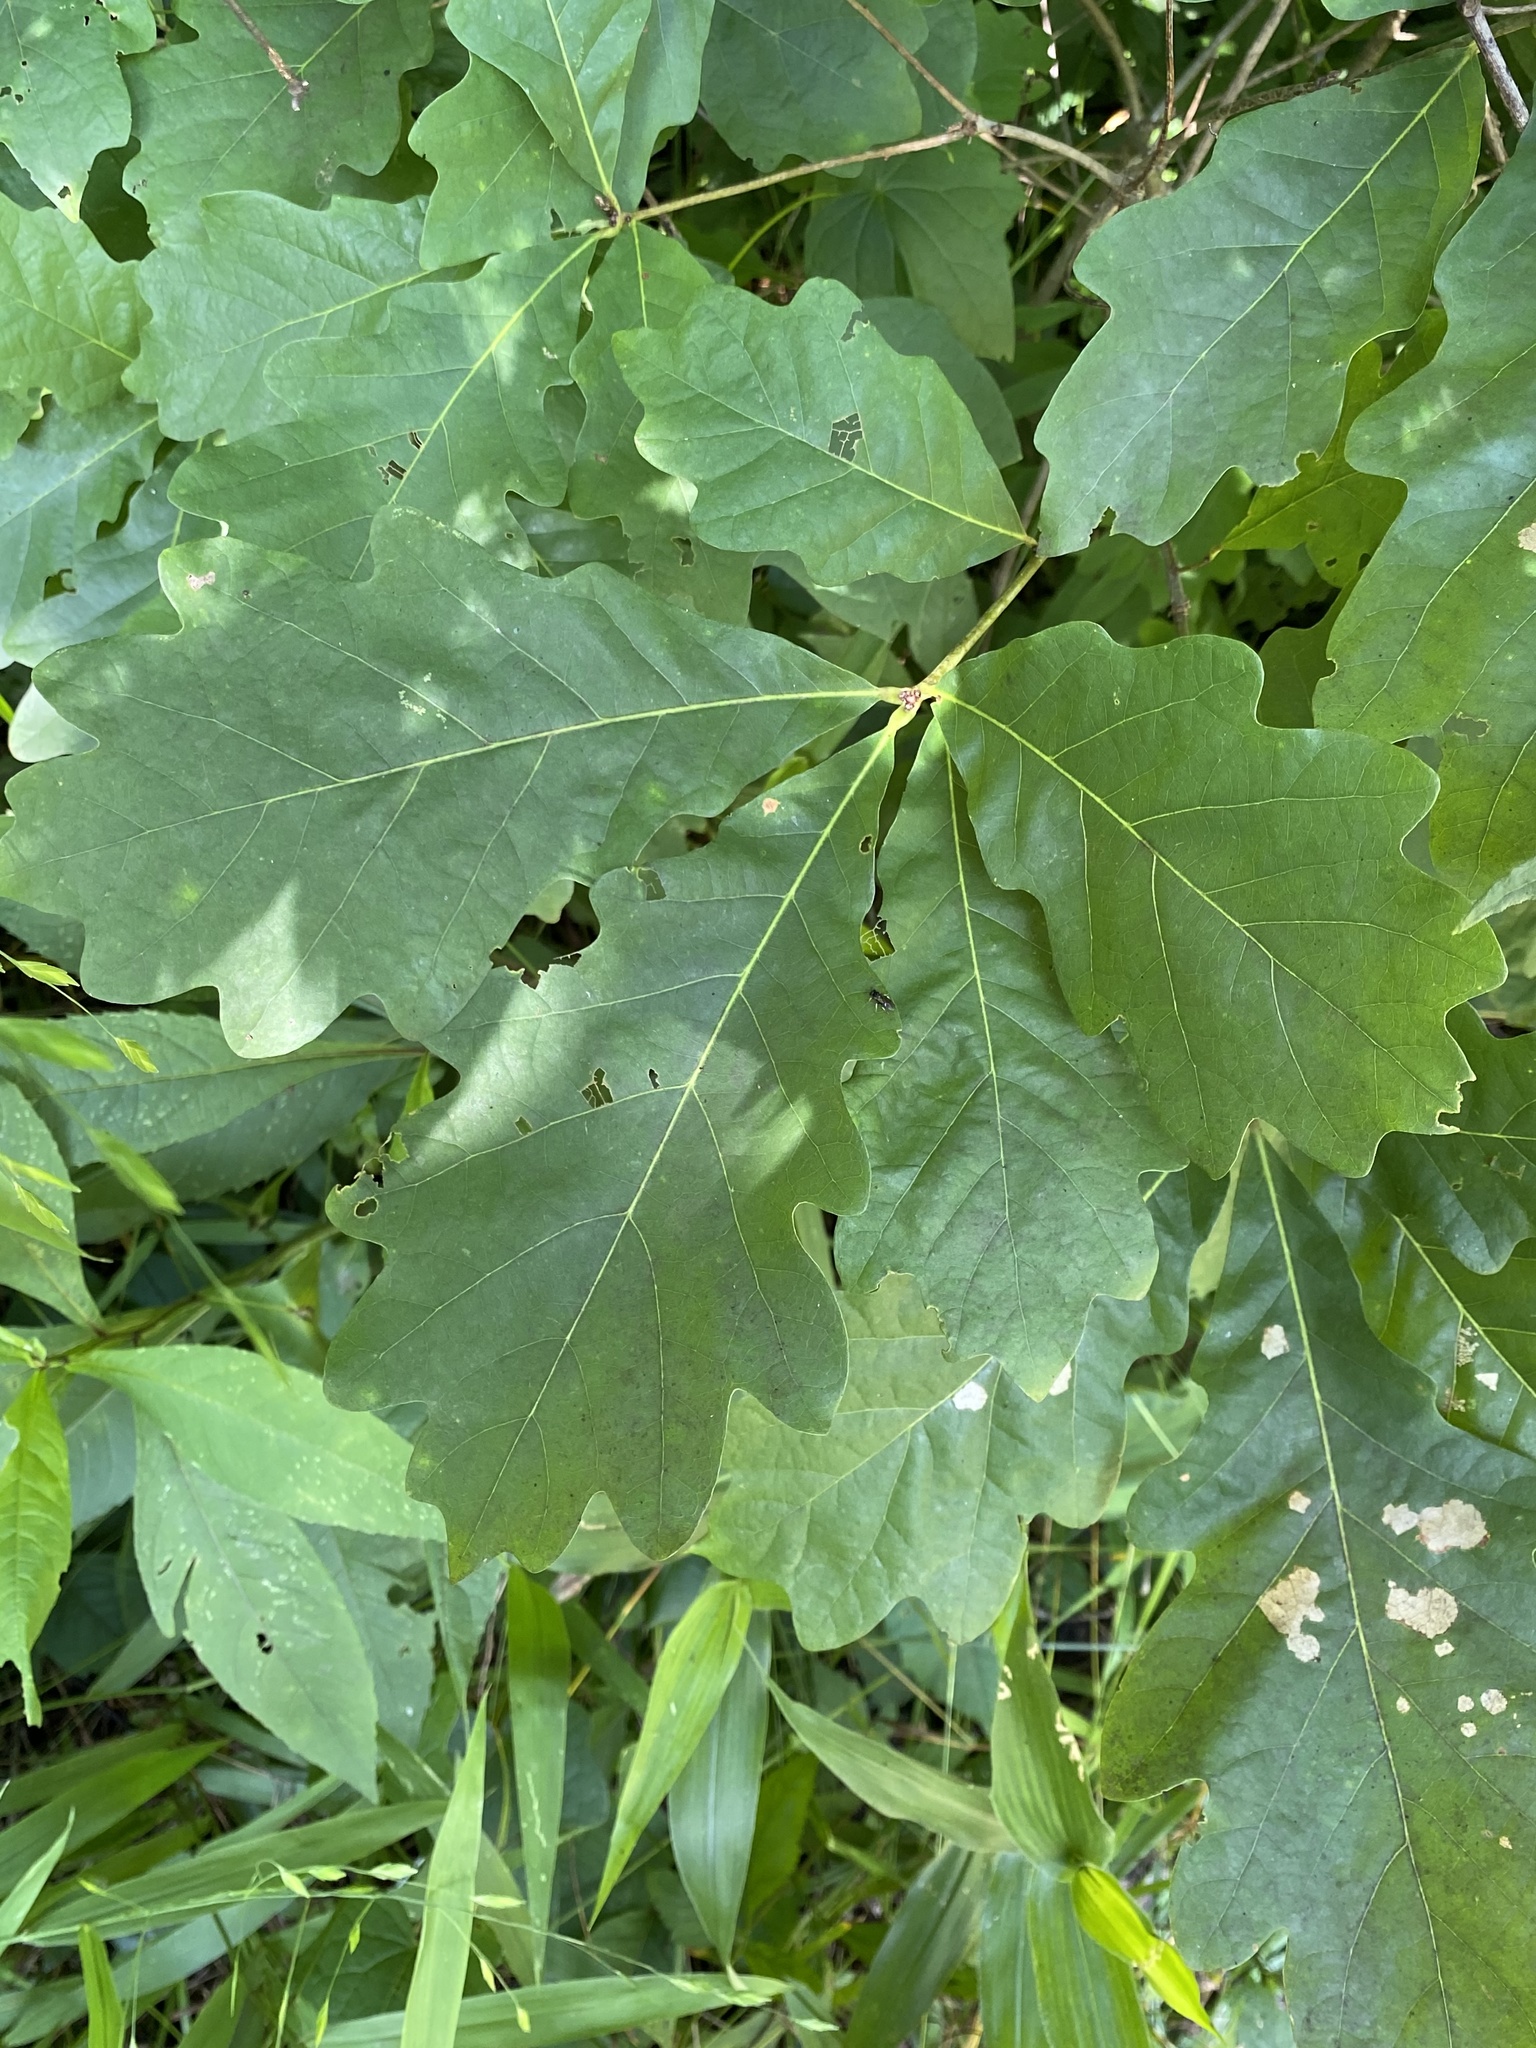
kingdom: Plantae
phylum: Tracheophyta
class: Magnoliopsida
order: Fagales
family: Fagaceae
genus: Quercus
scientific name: Quercus alba
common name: White oak
